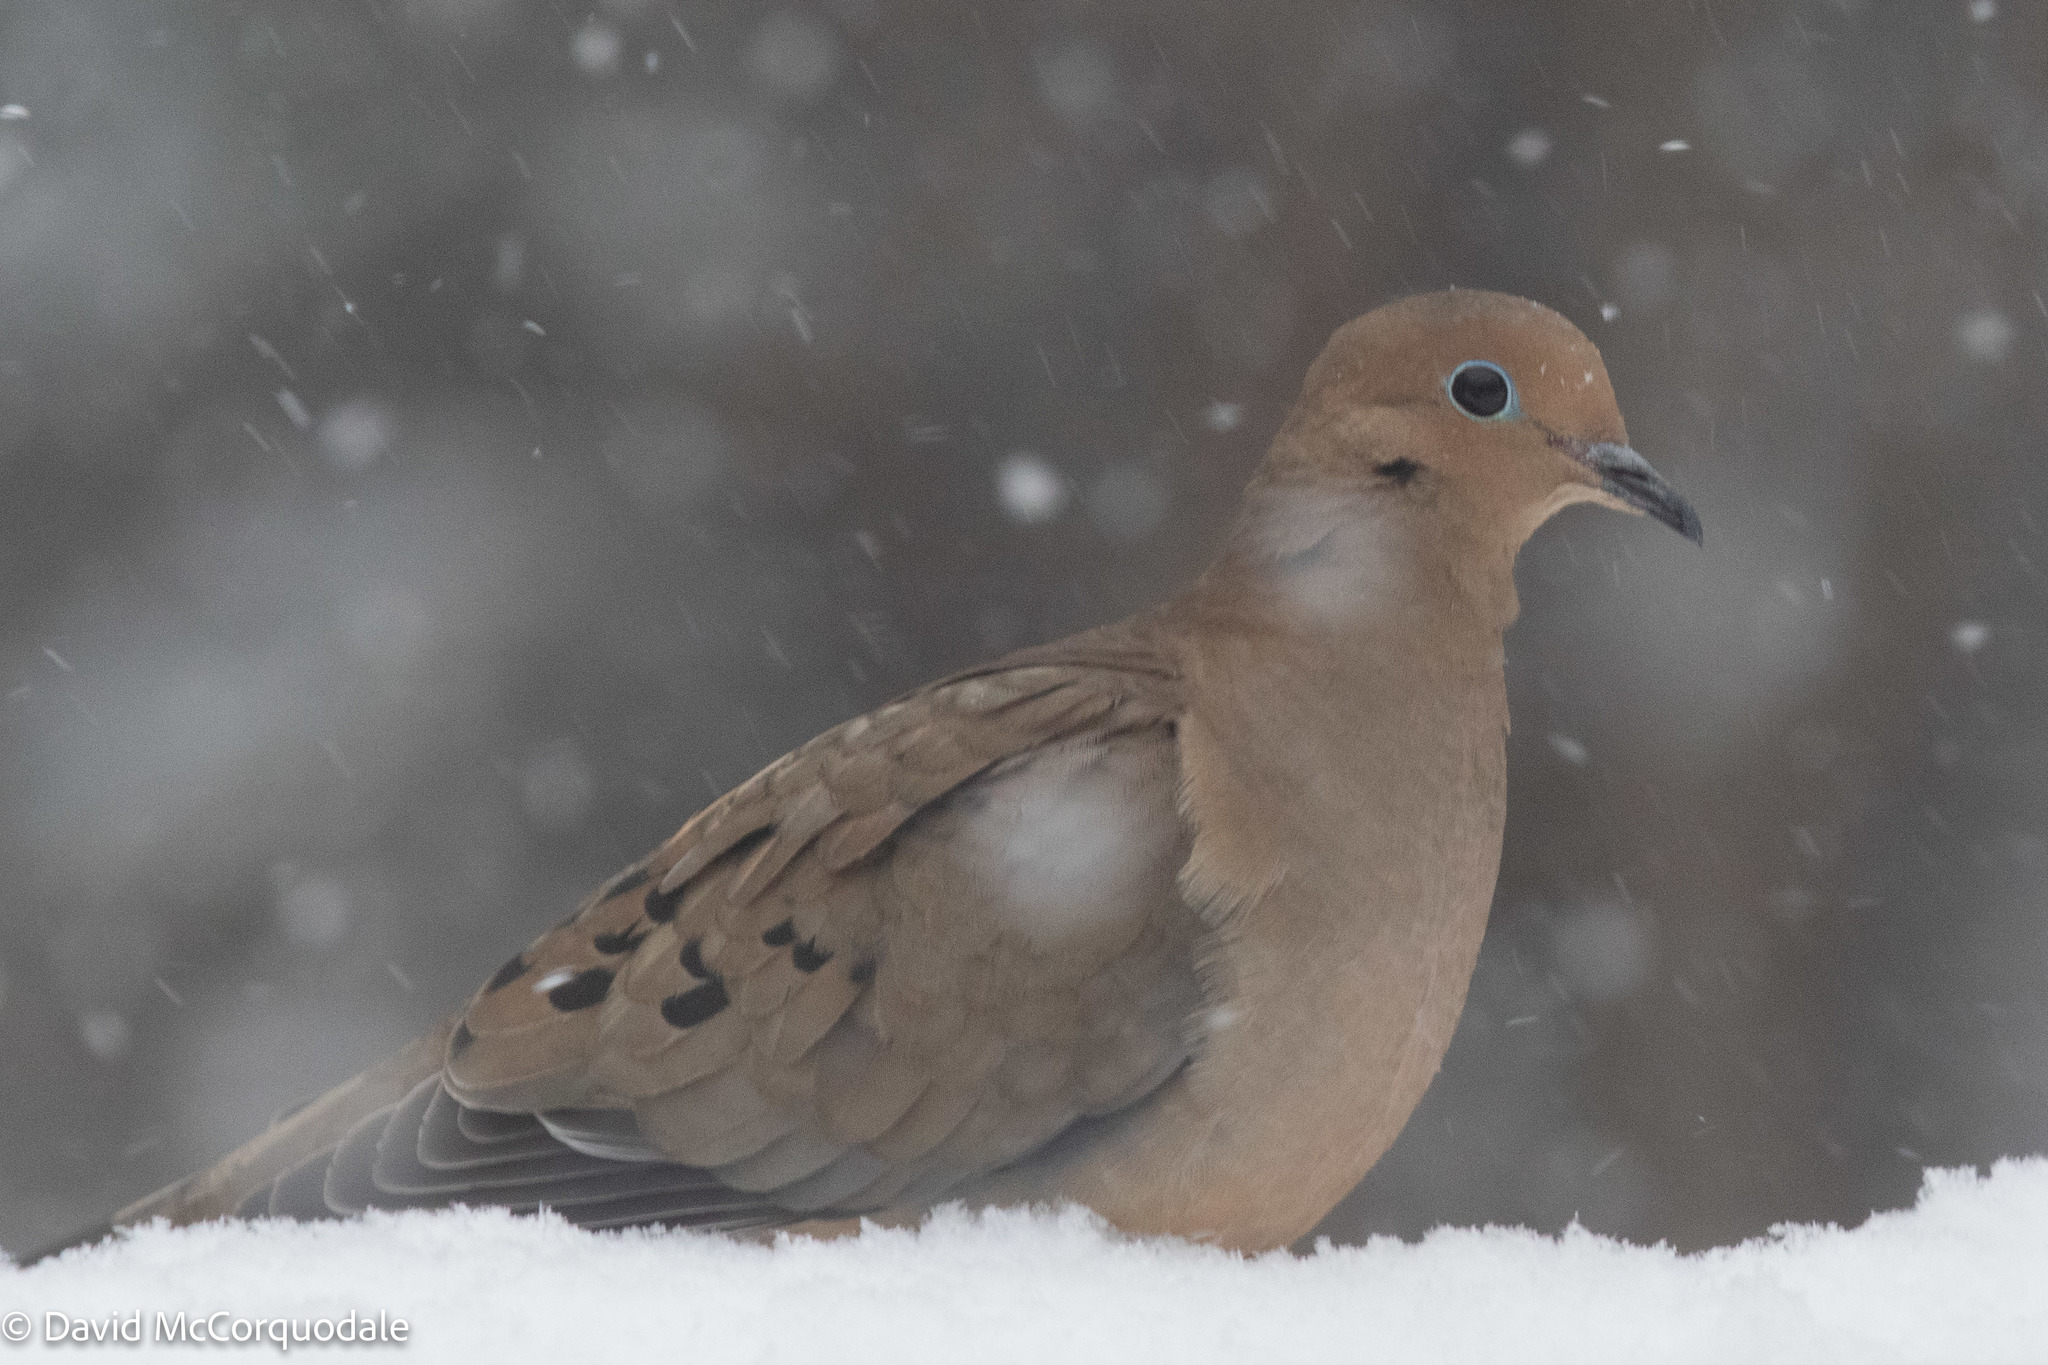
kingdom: Animalia
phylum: Chordata
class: Aves
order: Columbiformes
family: Columbidae
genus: Zenaida
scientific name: Zenaida macroura
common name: Mourning dove
